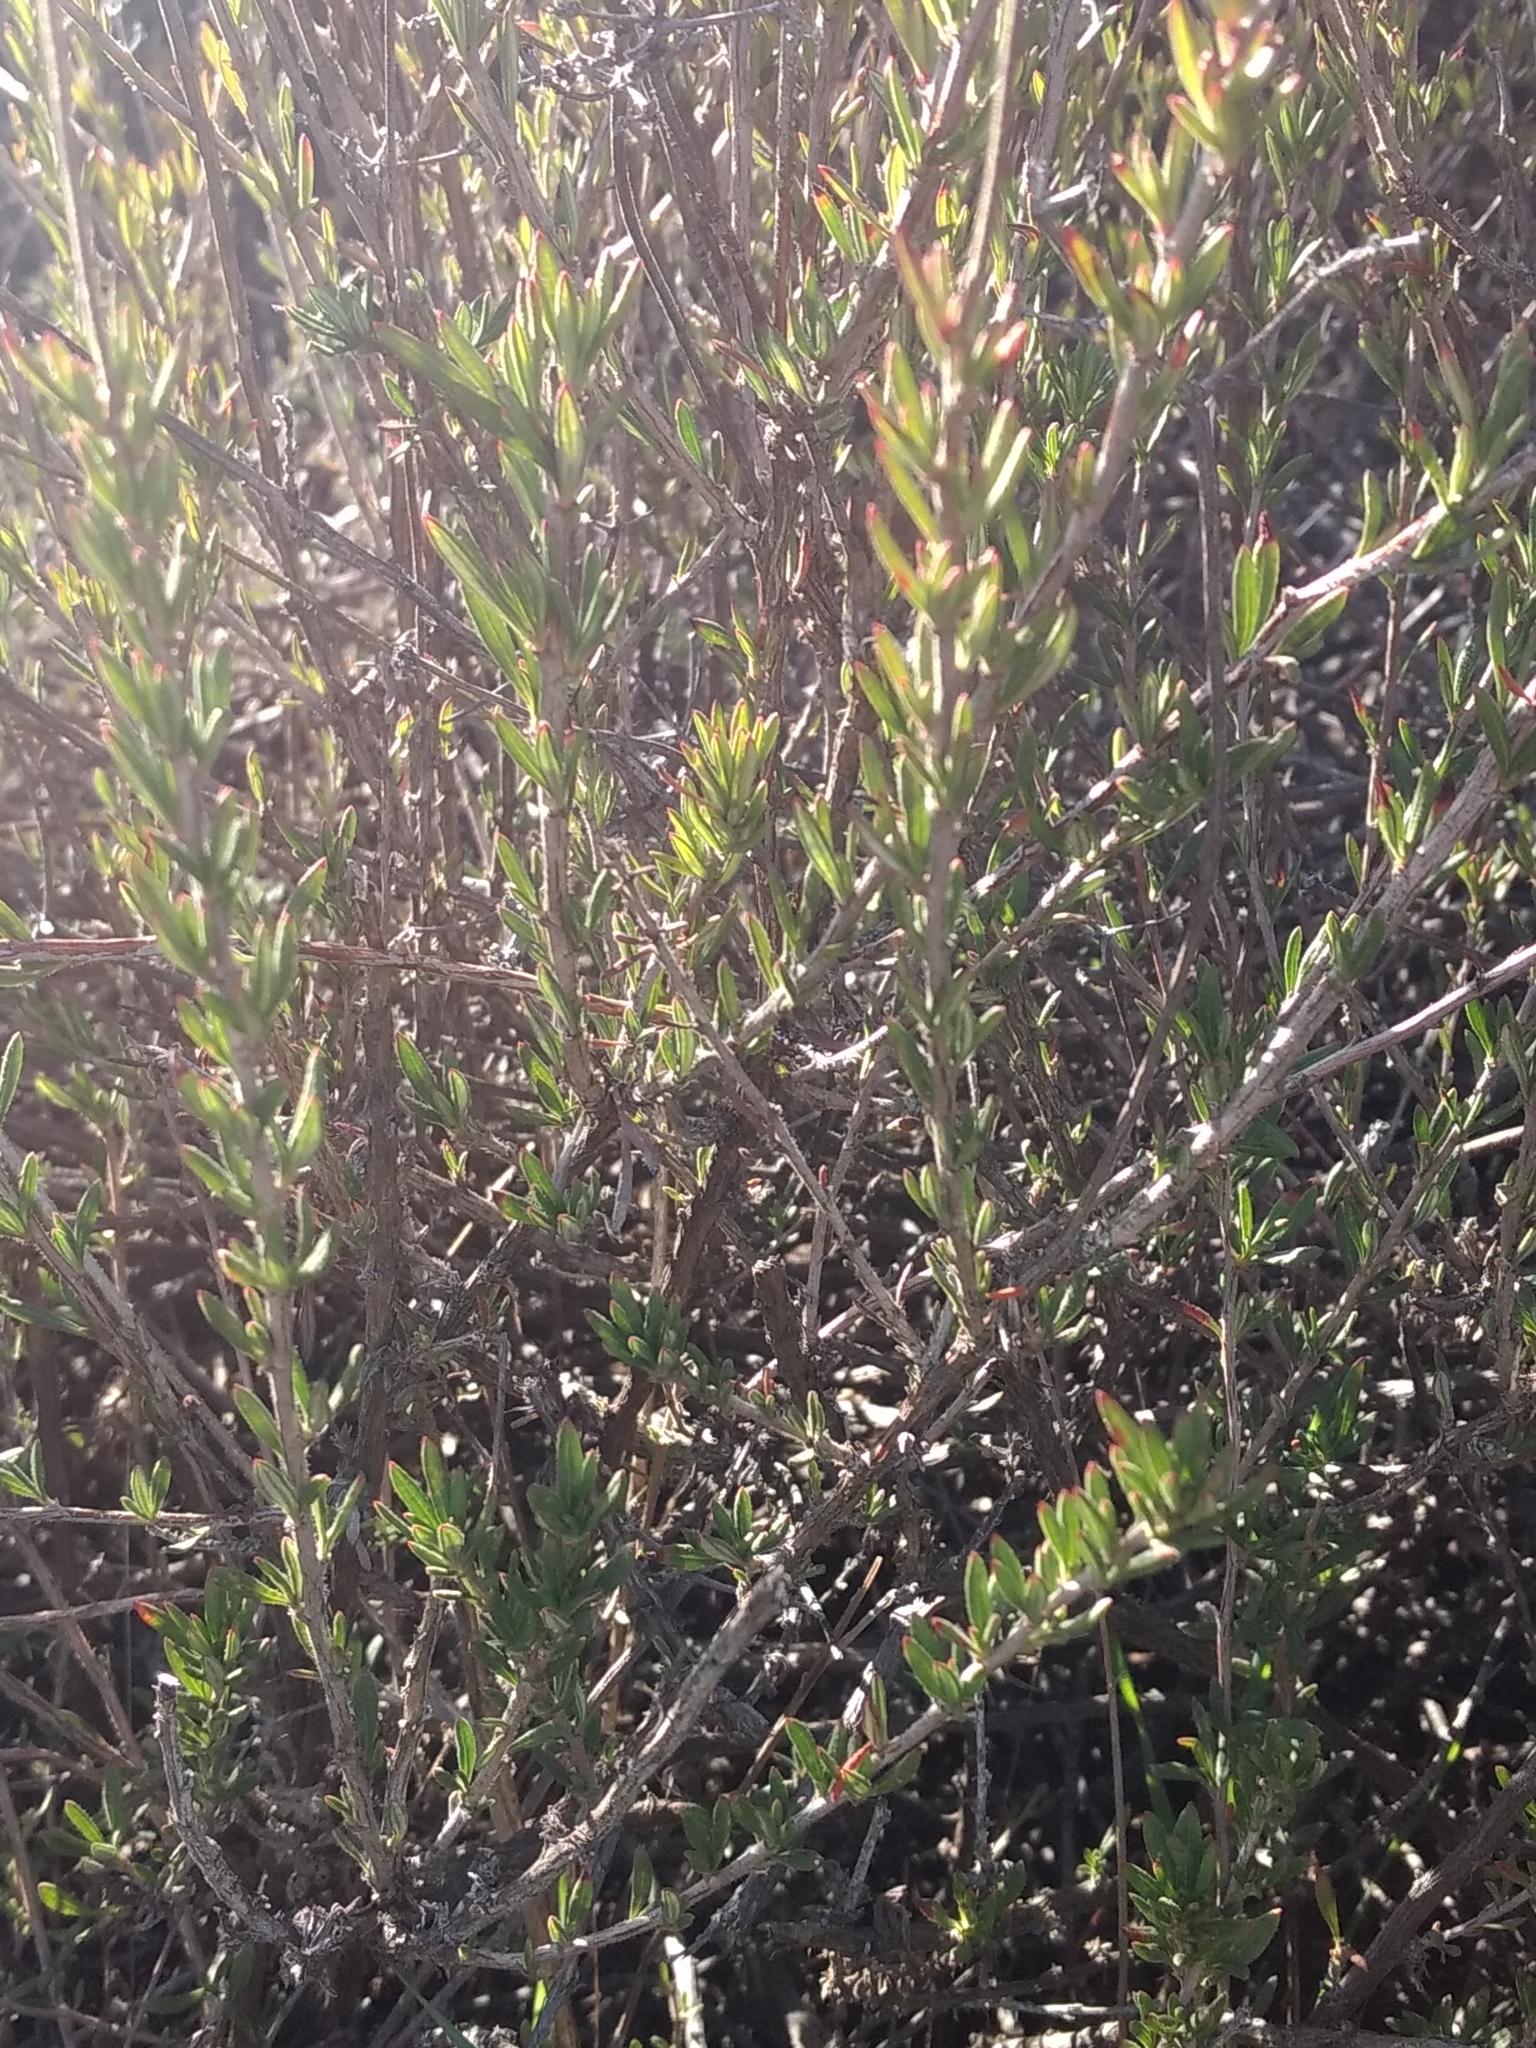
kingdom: Plantae
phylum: Tracheophyta
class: Magnoliopsida
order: Caryophyllales
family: Polygonaceae
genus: Eriogonum
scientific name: Eriogonum fasciculatum
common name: California wild buckwheat
